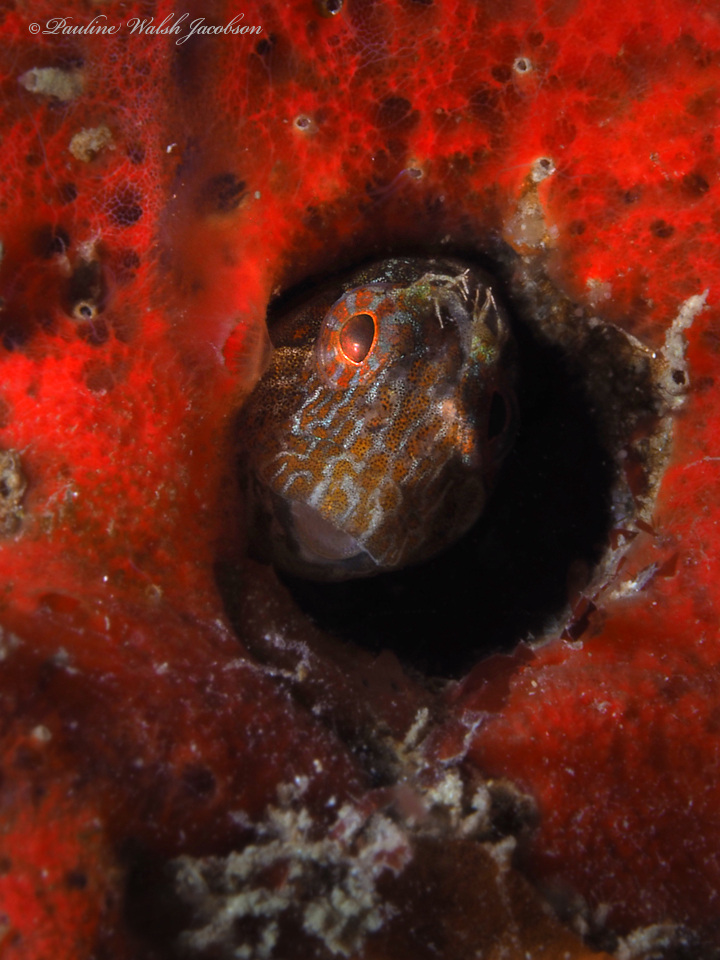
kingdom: Animalia
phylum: Chordata
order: Perciformes
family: Blenniidae
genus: Hypleurochilus
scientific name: Hypleurochilus pseudoaequipinnis
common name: Oyster blenny
